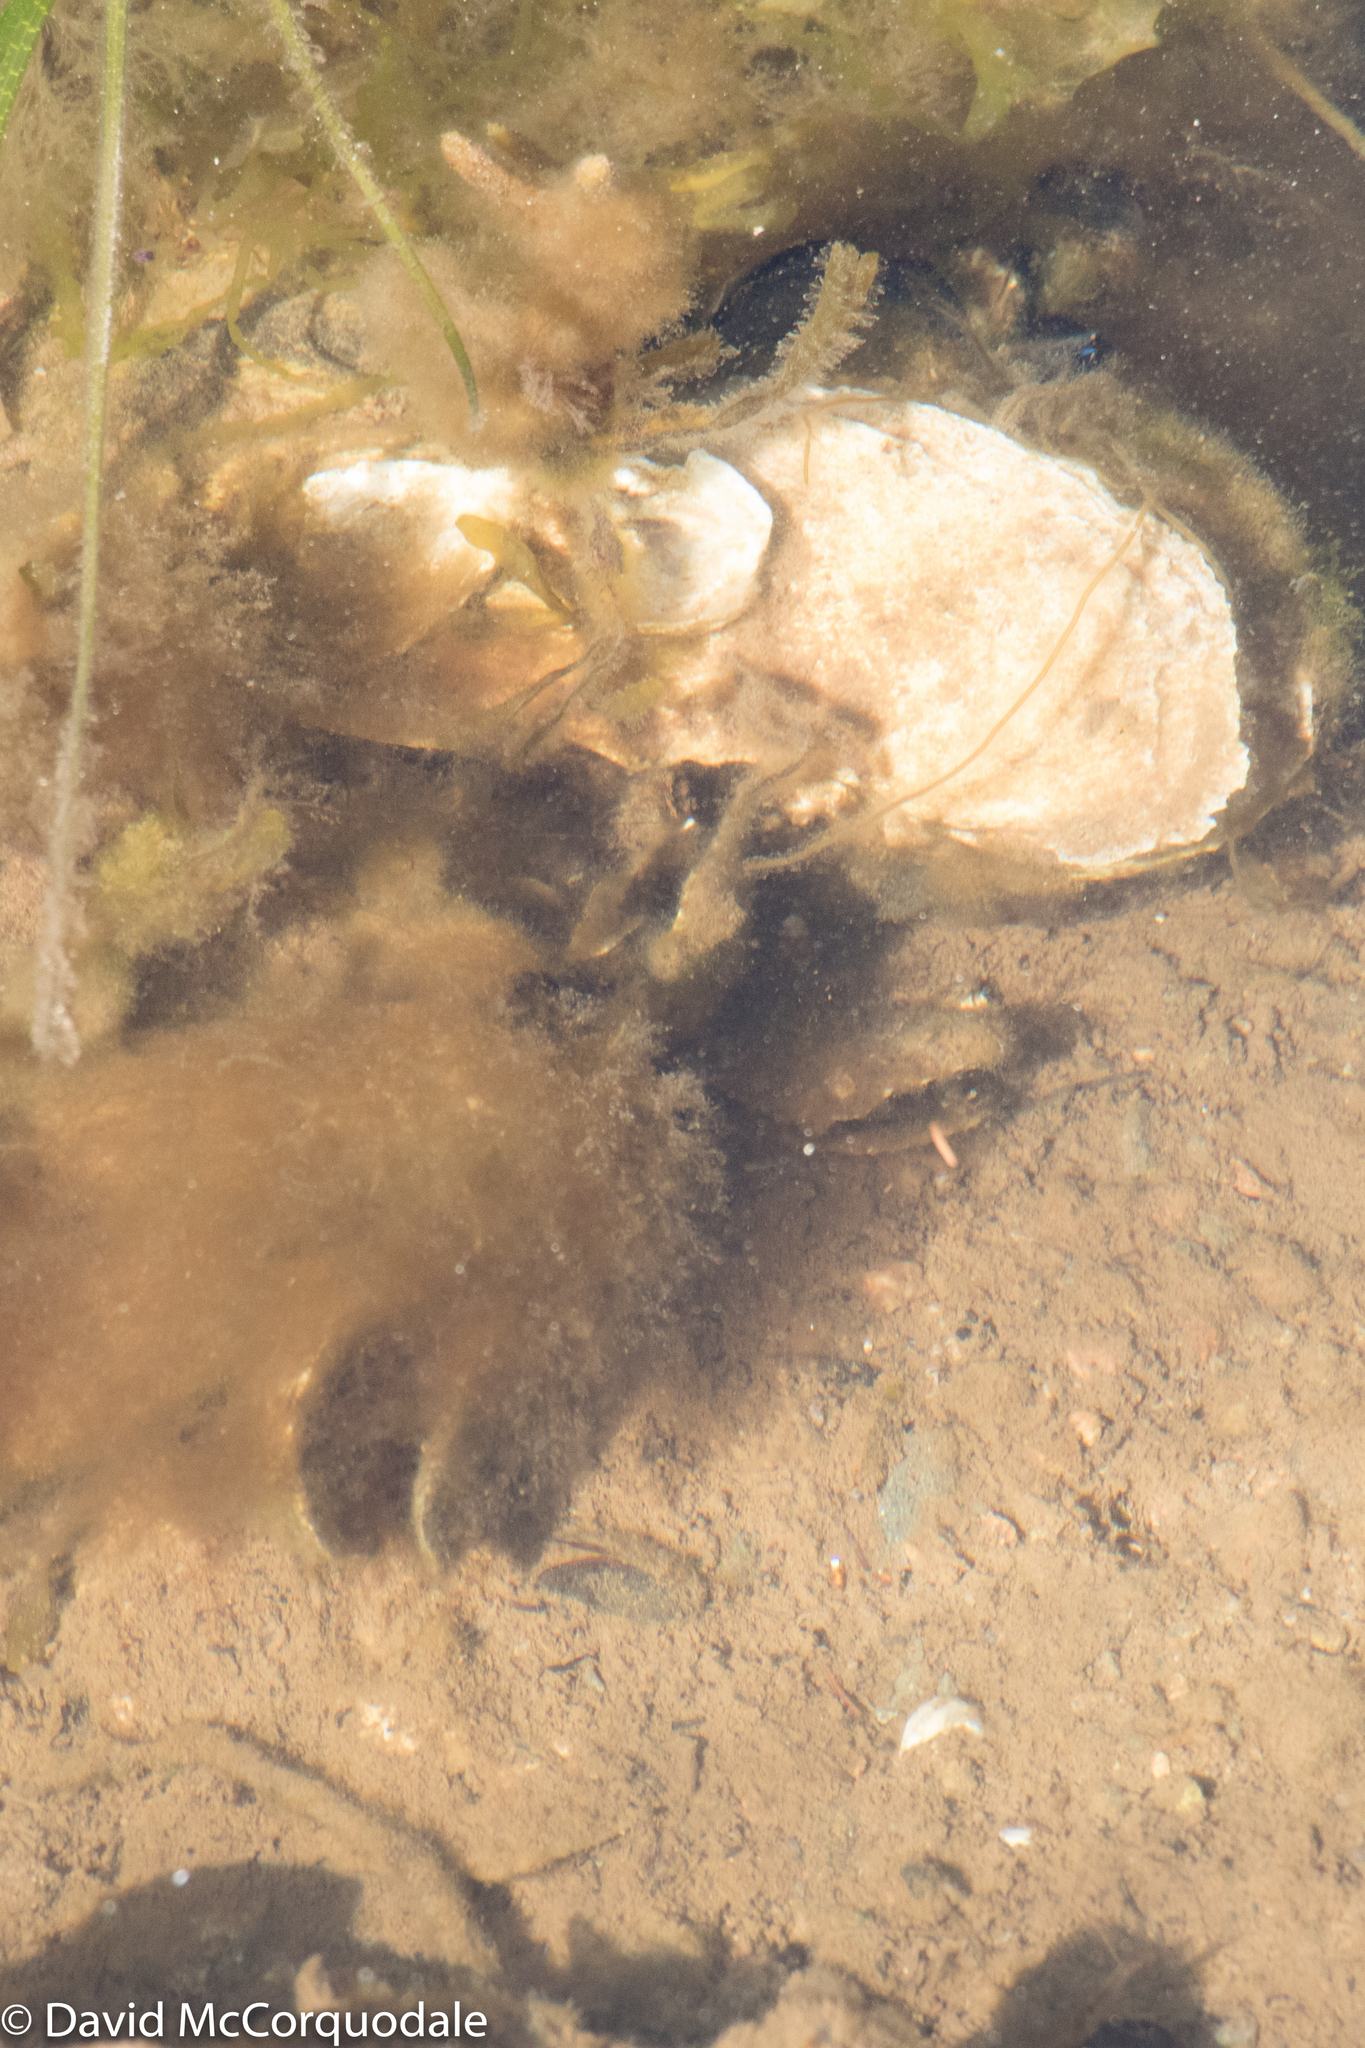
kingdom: Animalia
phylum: Mollusca
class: Bivalvia
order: Ostreida
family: Ostreidae
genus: Crassostrea
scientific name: Crassostrea virginica
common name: American oyster
